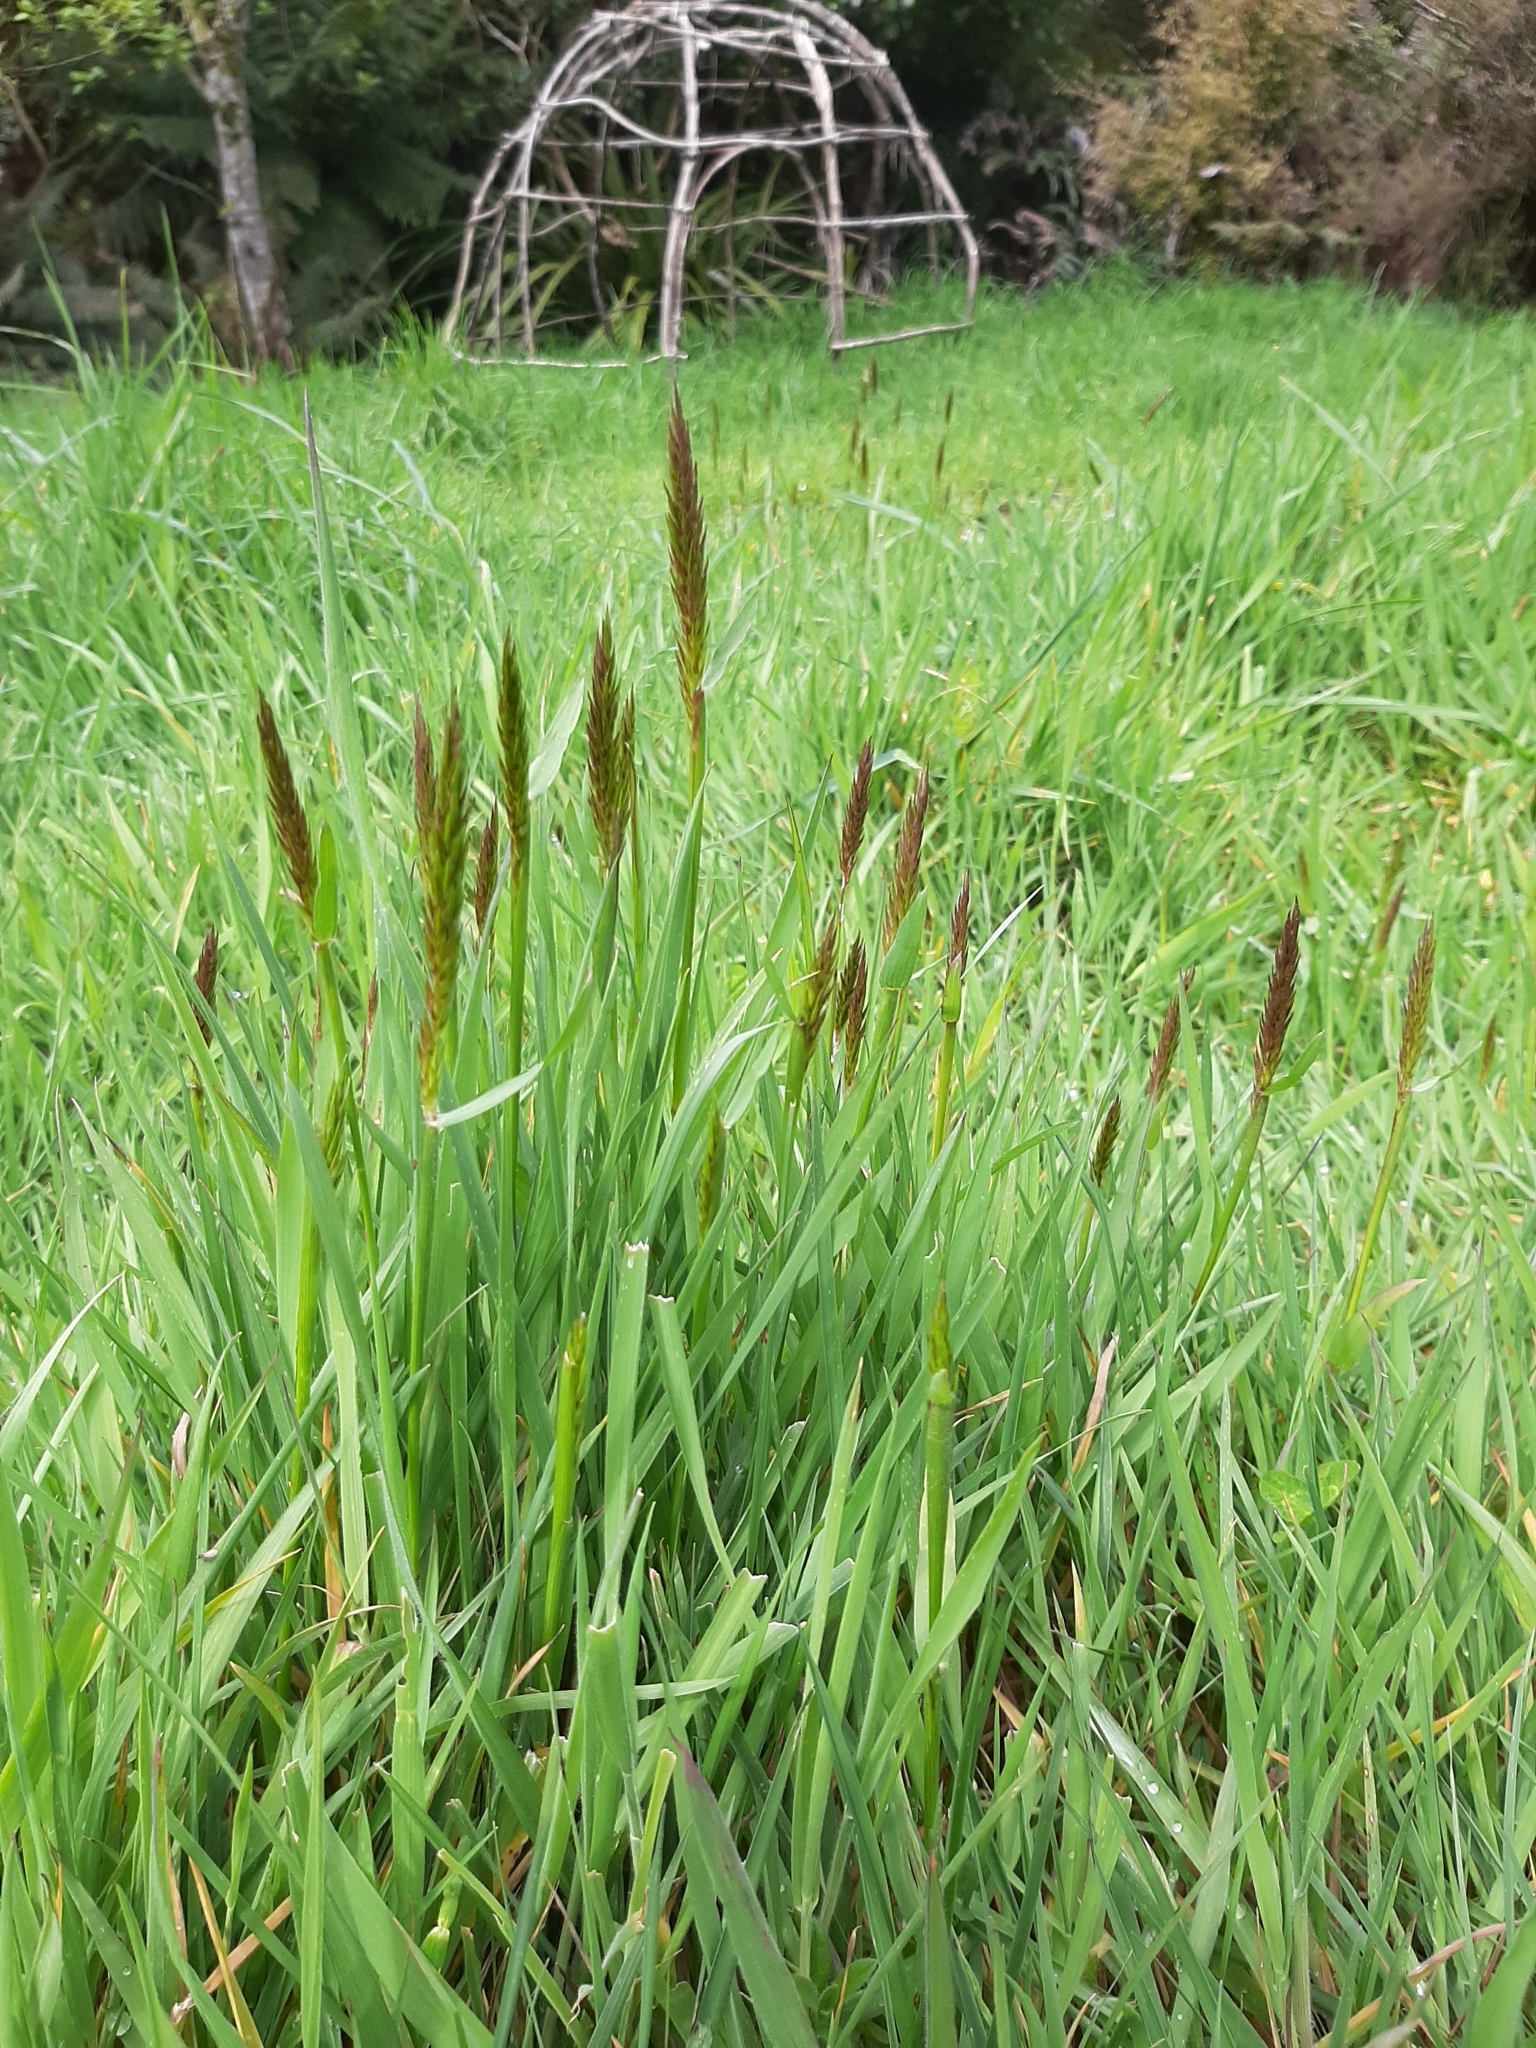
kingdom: Plantae
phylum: Tracheophyta
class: Liliopsida
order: Poales
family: Poaceae
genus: Anthoxanthum
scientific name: Anthoxanthum odoratum
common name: Sweet vernalgrass
